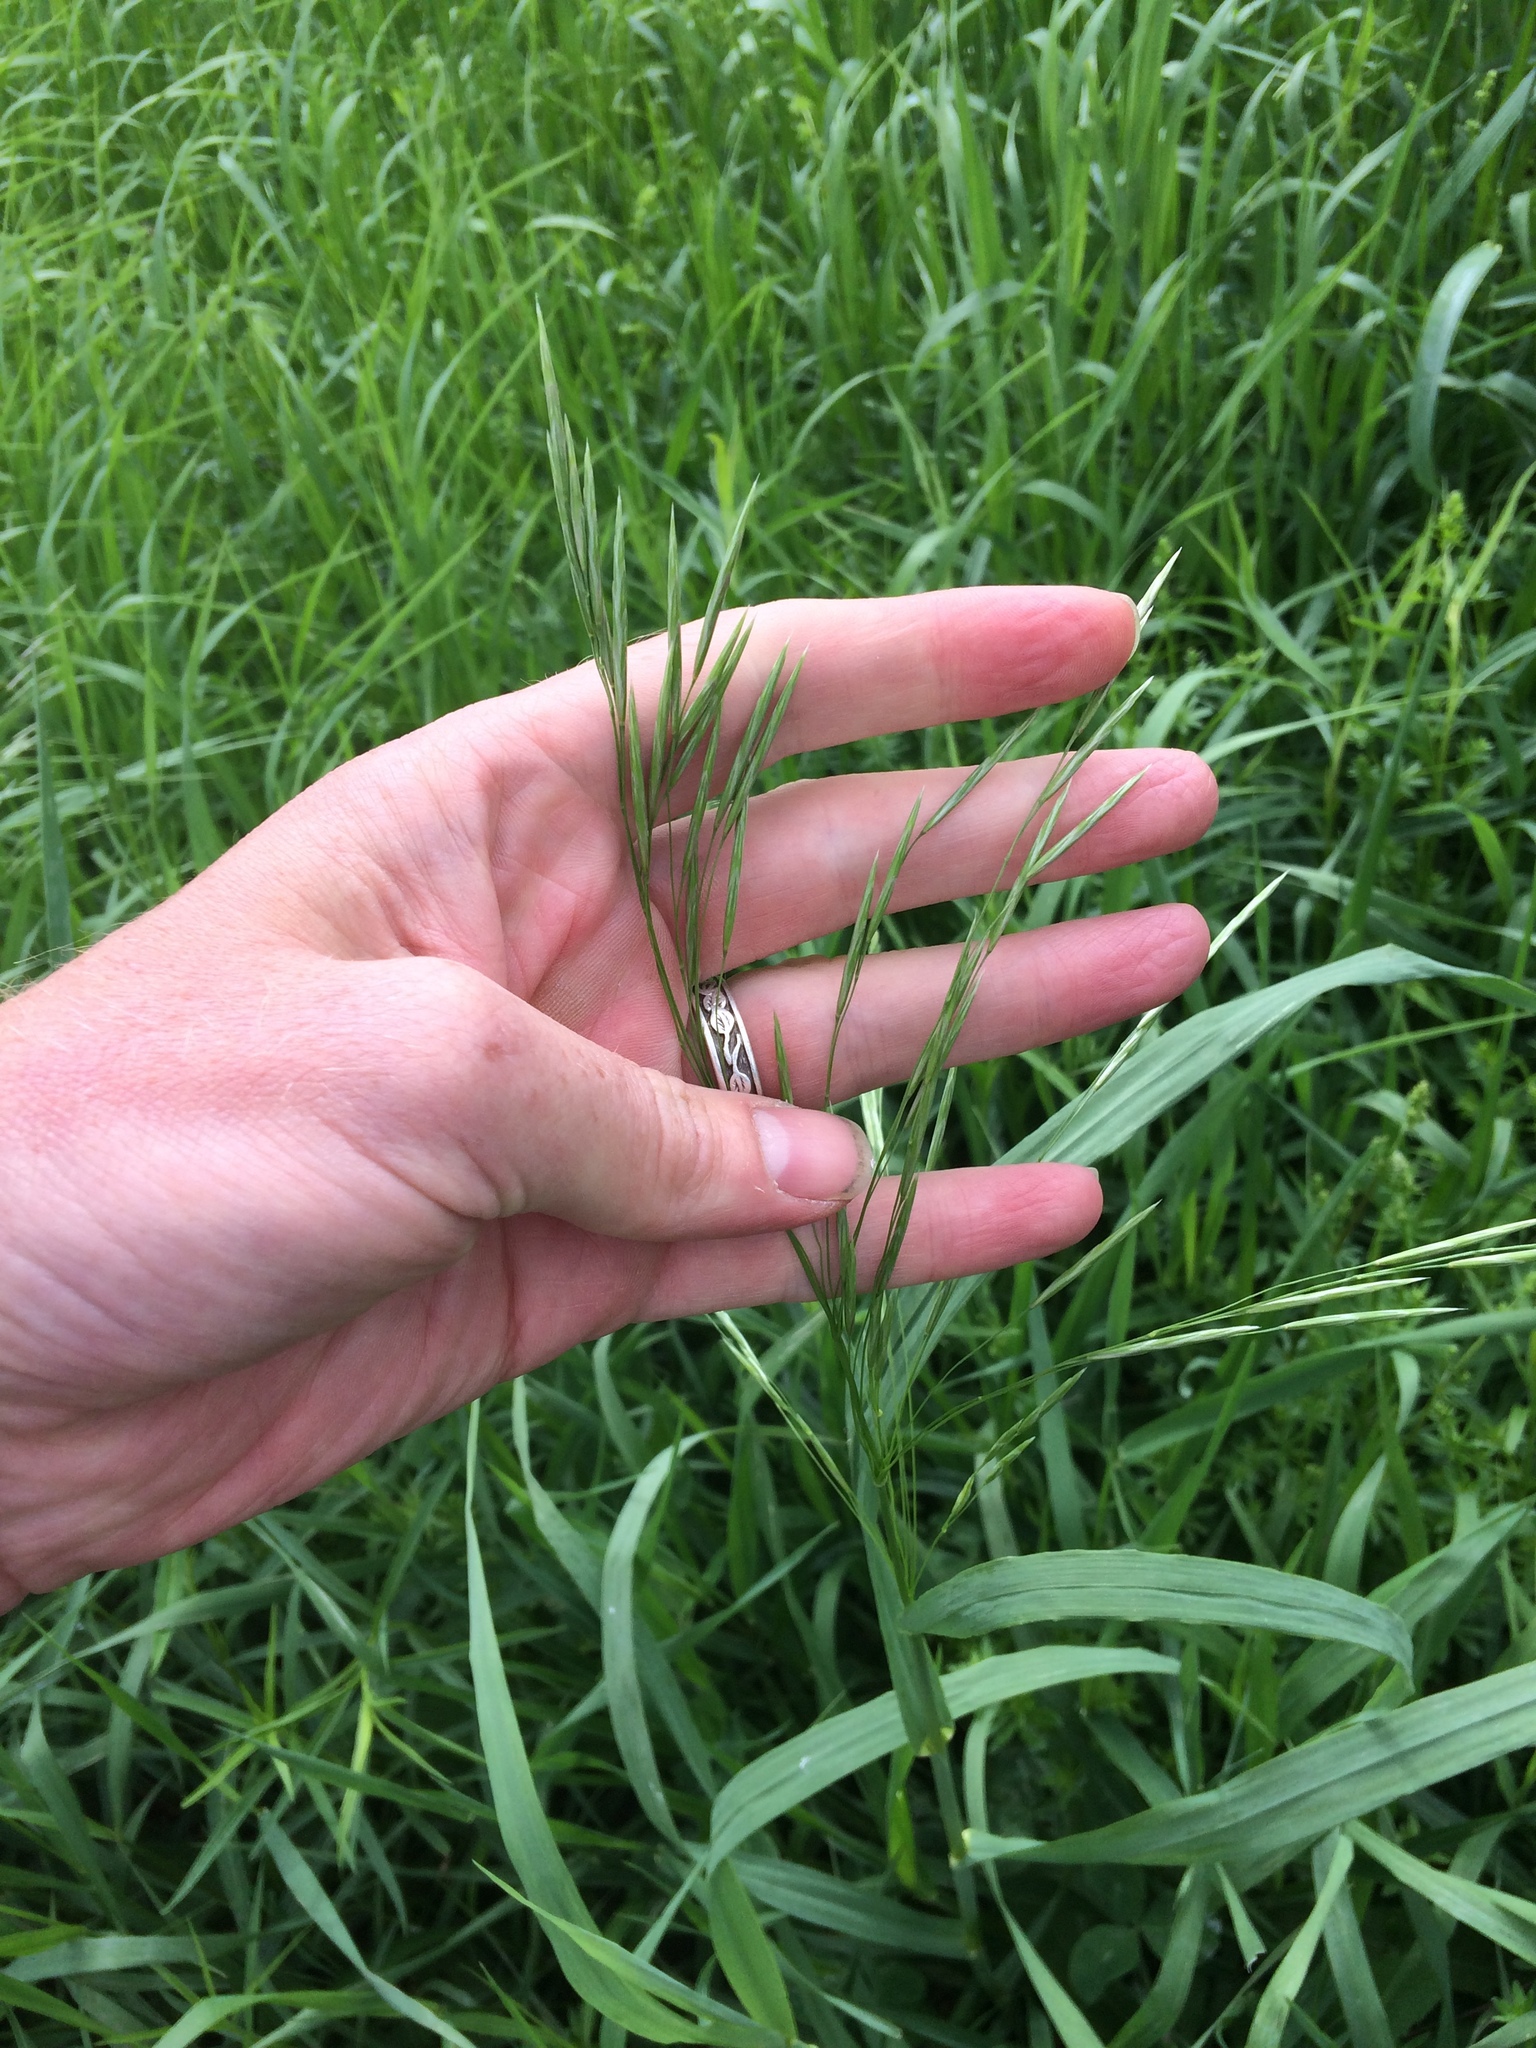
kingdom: Plantae
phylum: Tracheophyta
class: Liliopsida
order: Poales
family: Poaceae
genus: Bromus
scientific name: Bromus inermis
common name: Smooth brome
